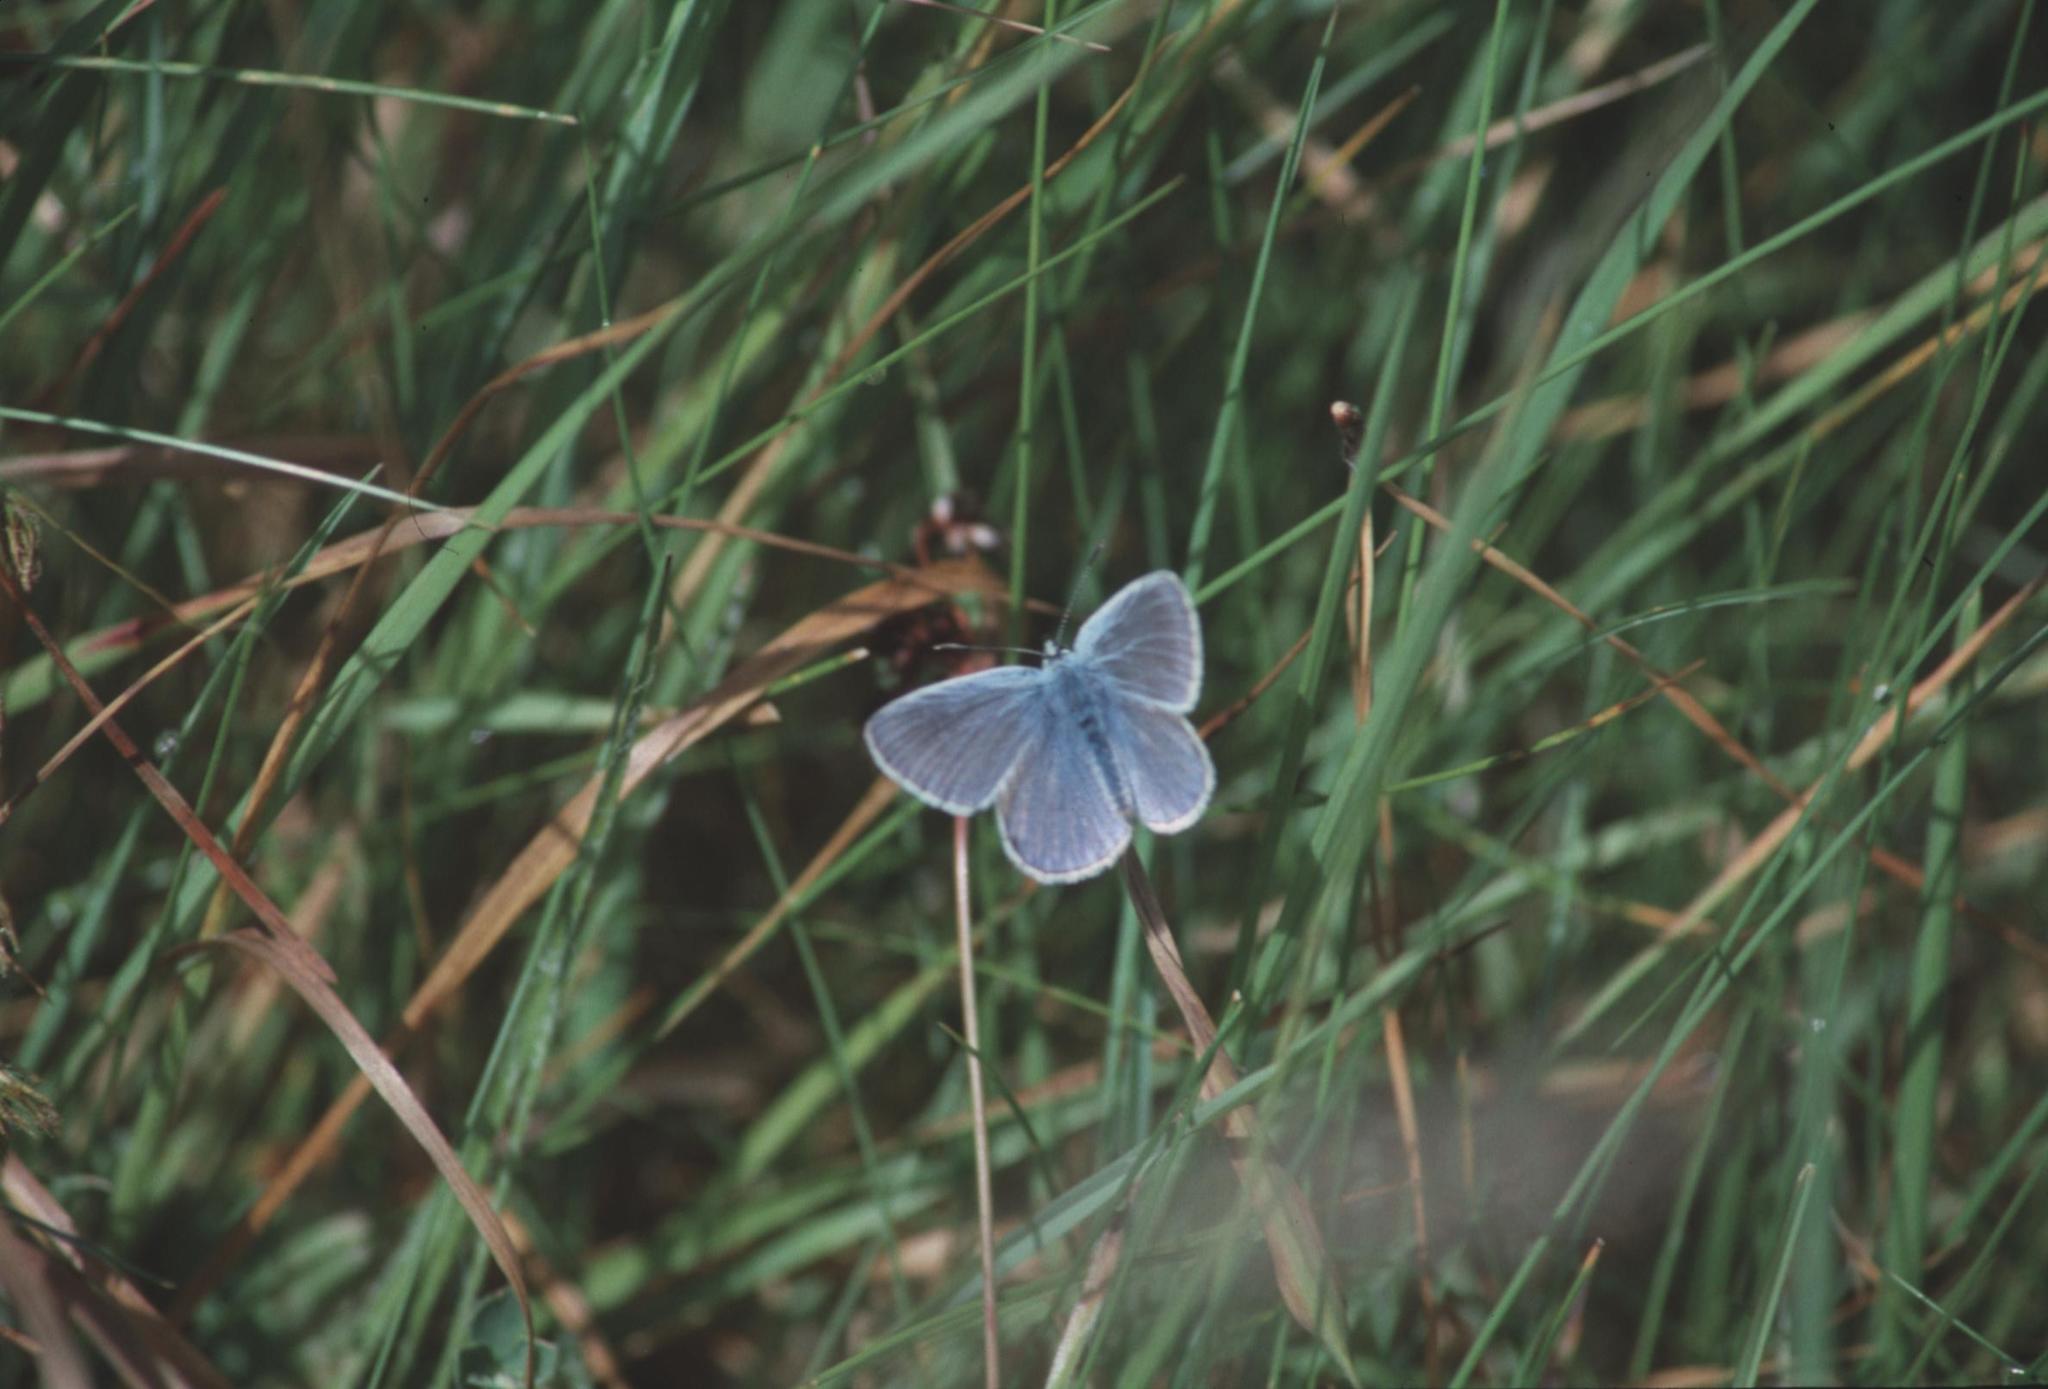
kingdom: Animalia
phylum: Arthropoda
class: Insecta
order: Lepidoptera
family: Lycaenidae
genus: Polyommatus
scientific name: Polyommatus icarus
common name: Common blue
